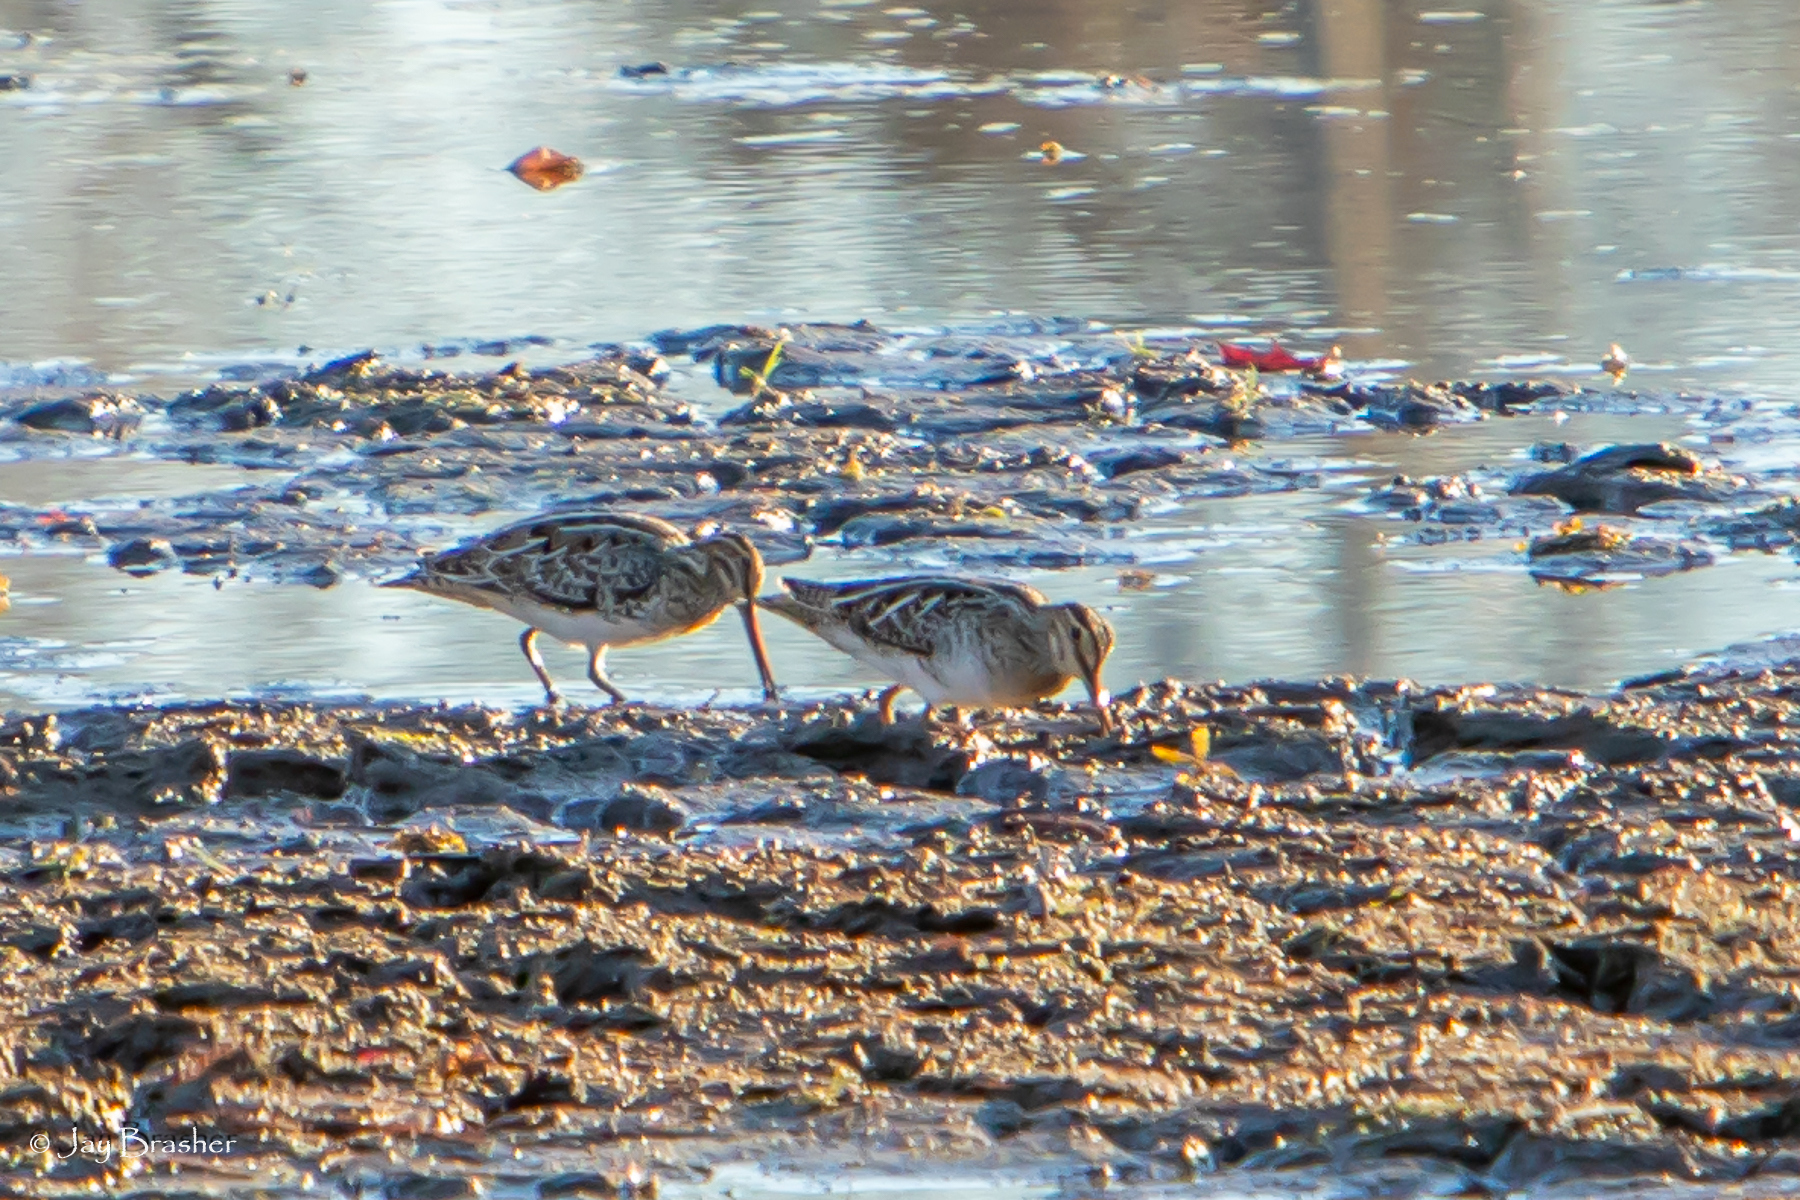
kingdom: Animalia
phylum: Chordata
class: Aves
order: Charadriiformes
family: Scolopacidae
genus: Gallinago
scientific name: Gallinago delicata
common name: Wilson's snipe
